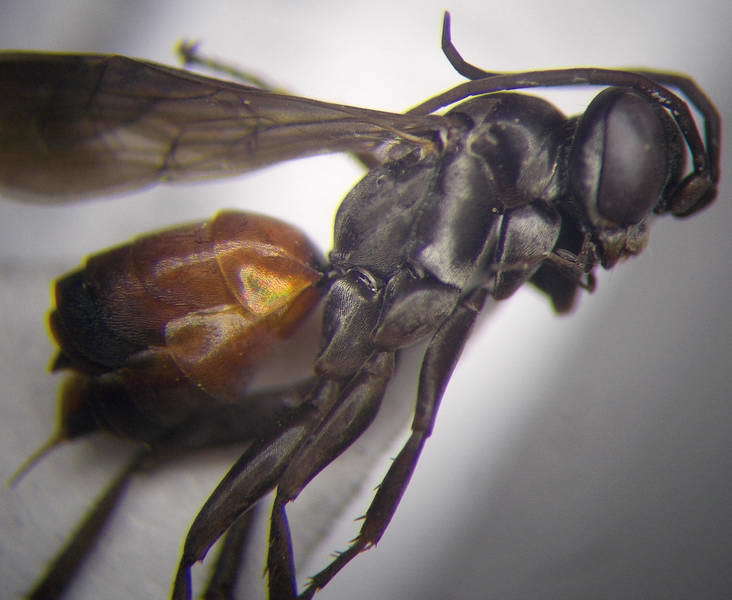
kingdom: Animalia
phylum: Arthropoda
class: Insecta
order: Hymenoptera
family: Pompilidae
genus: Tachyagetes
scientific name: Tachyagetes filicornis
